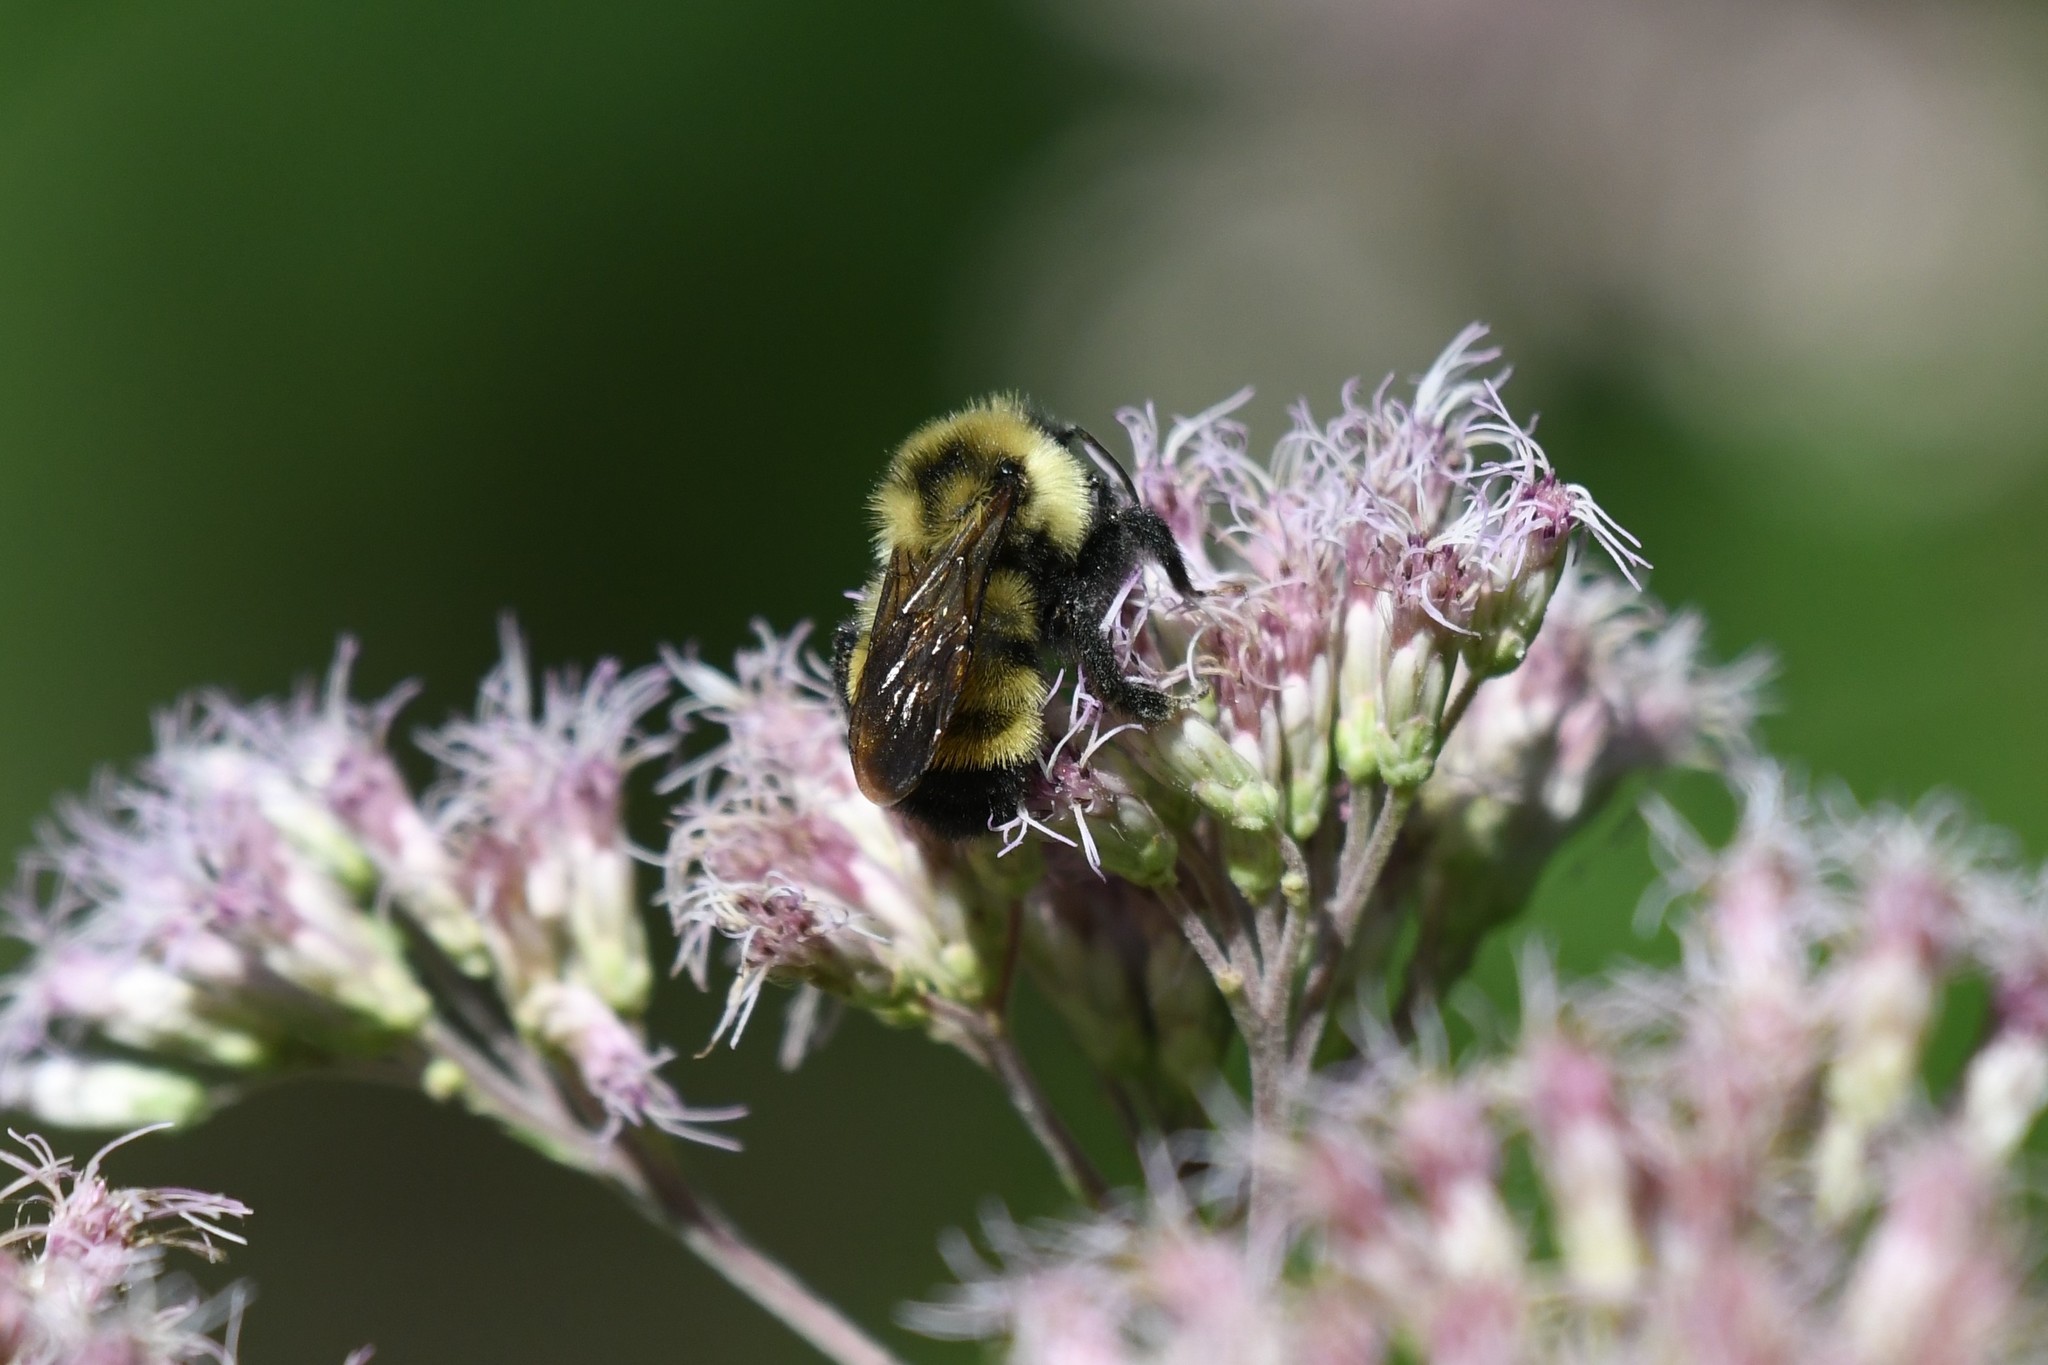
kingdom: Animalia
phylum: Arthropoda
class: Insecta
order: Hymenoptera
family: Apidae
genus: Bombus
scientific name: Bombus citrinus
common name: Lemon cuckoo bumble bee
